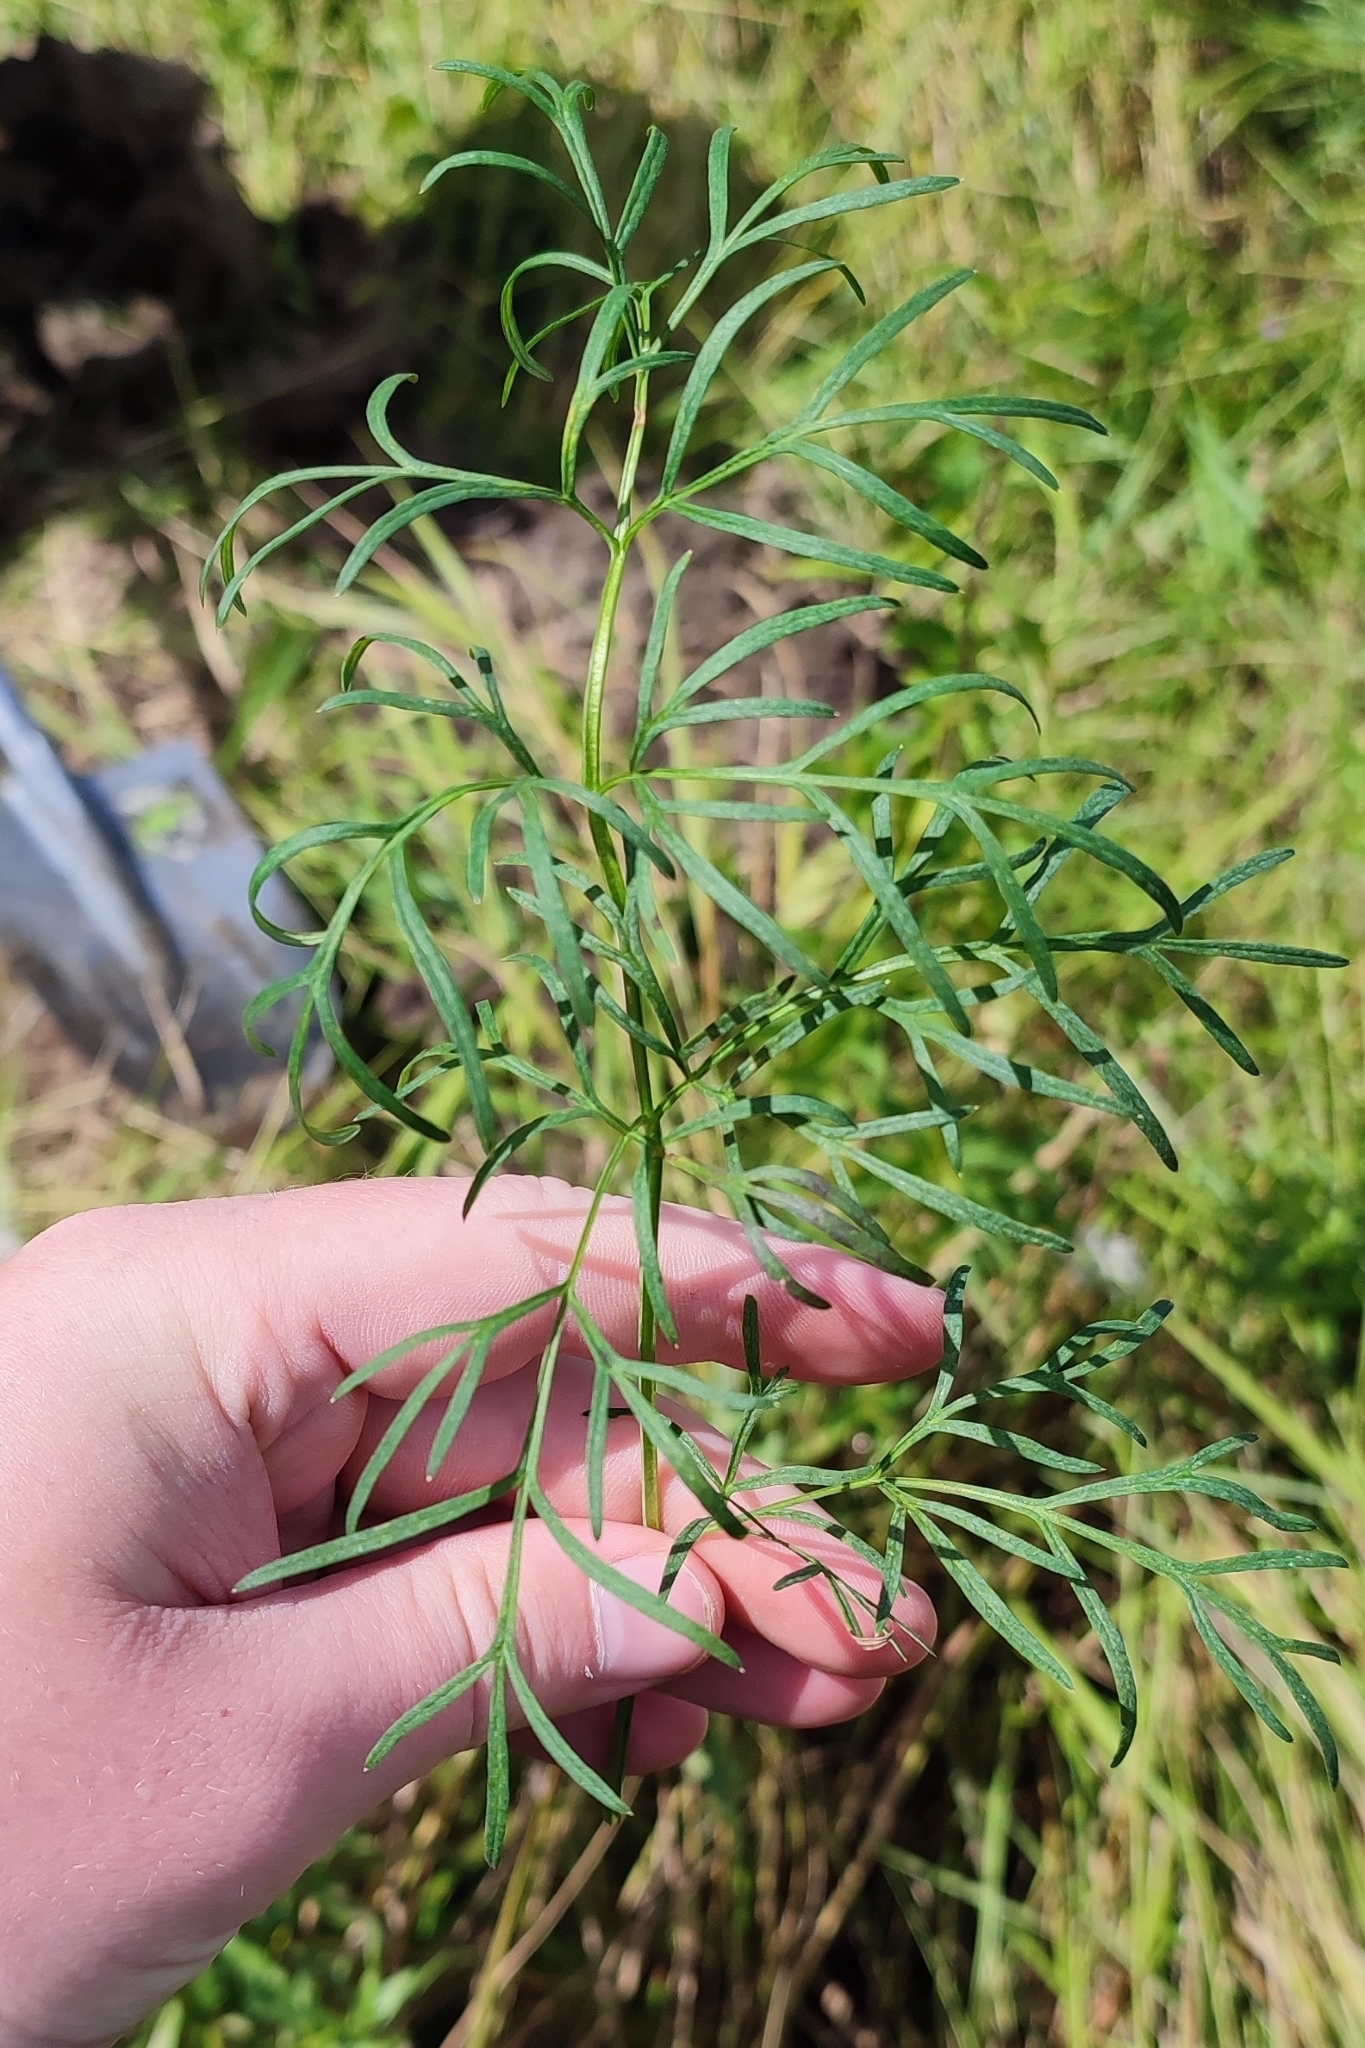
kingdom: Plantae
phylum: Tracheophyta
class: Magnoliopsida
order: Apiales
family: Apiaceae
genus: Kadenia
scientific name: Kadenia dubia
